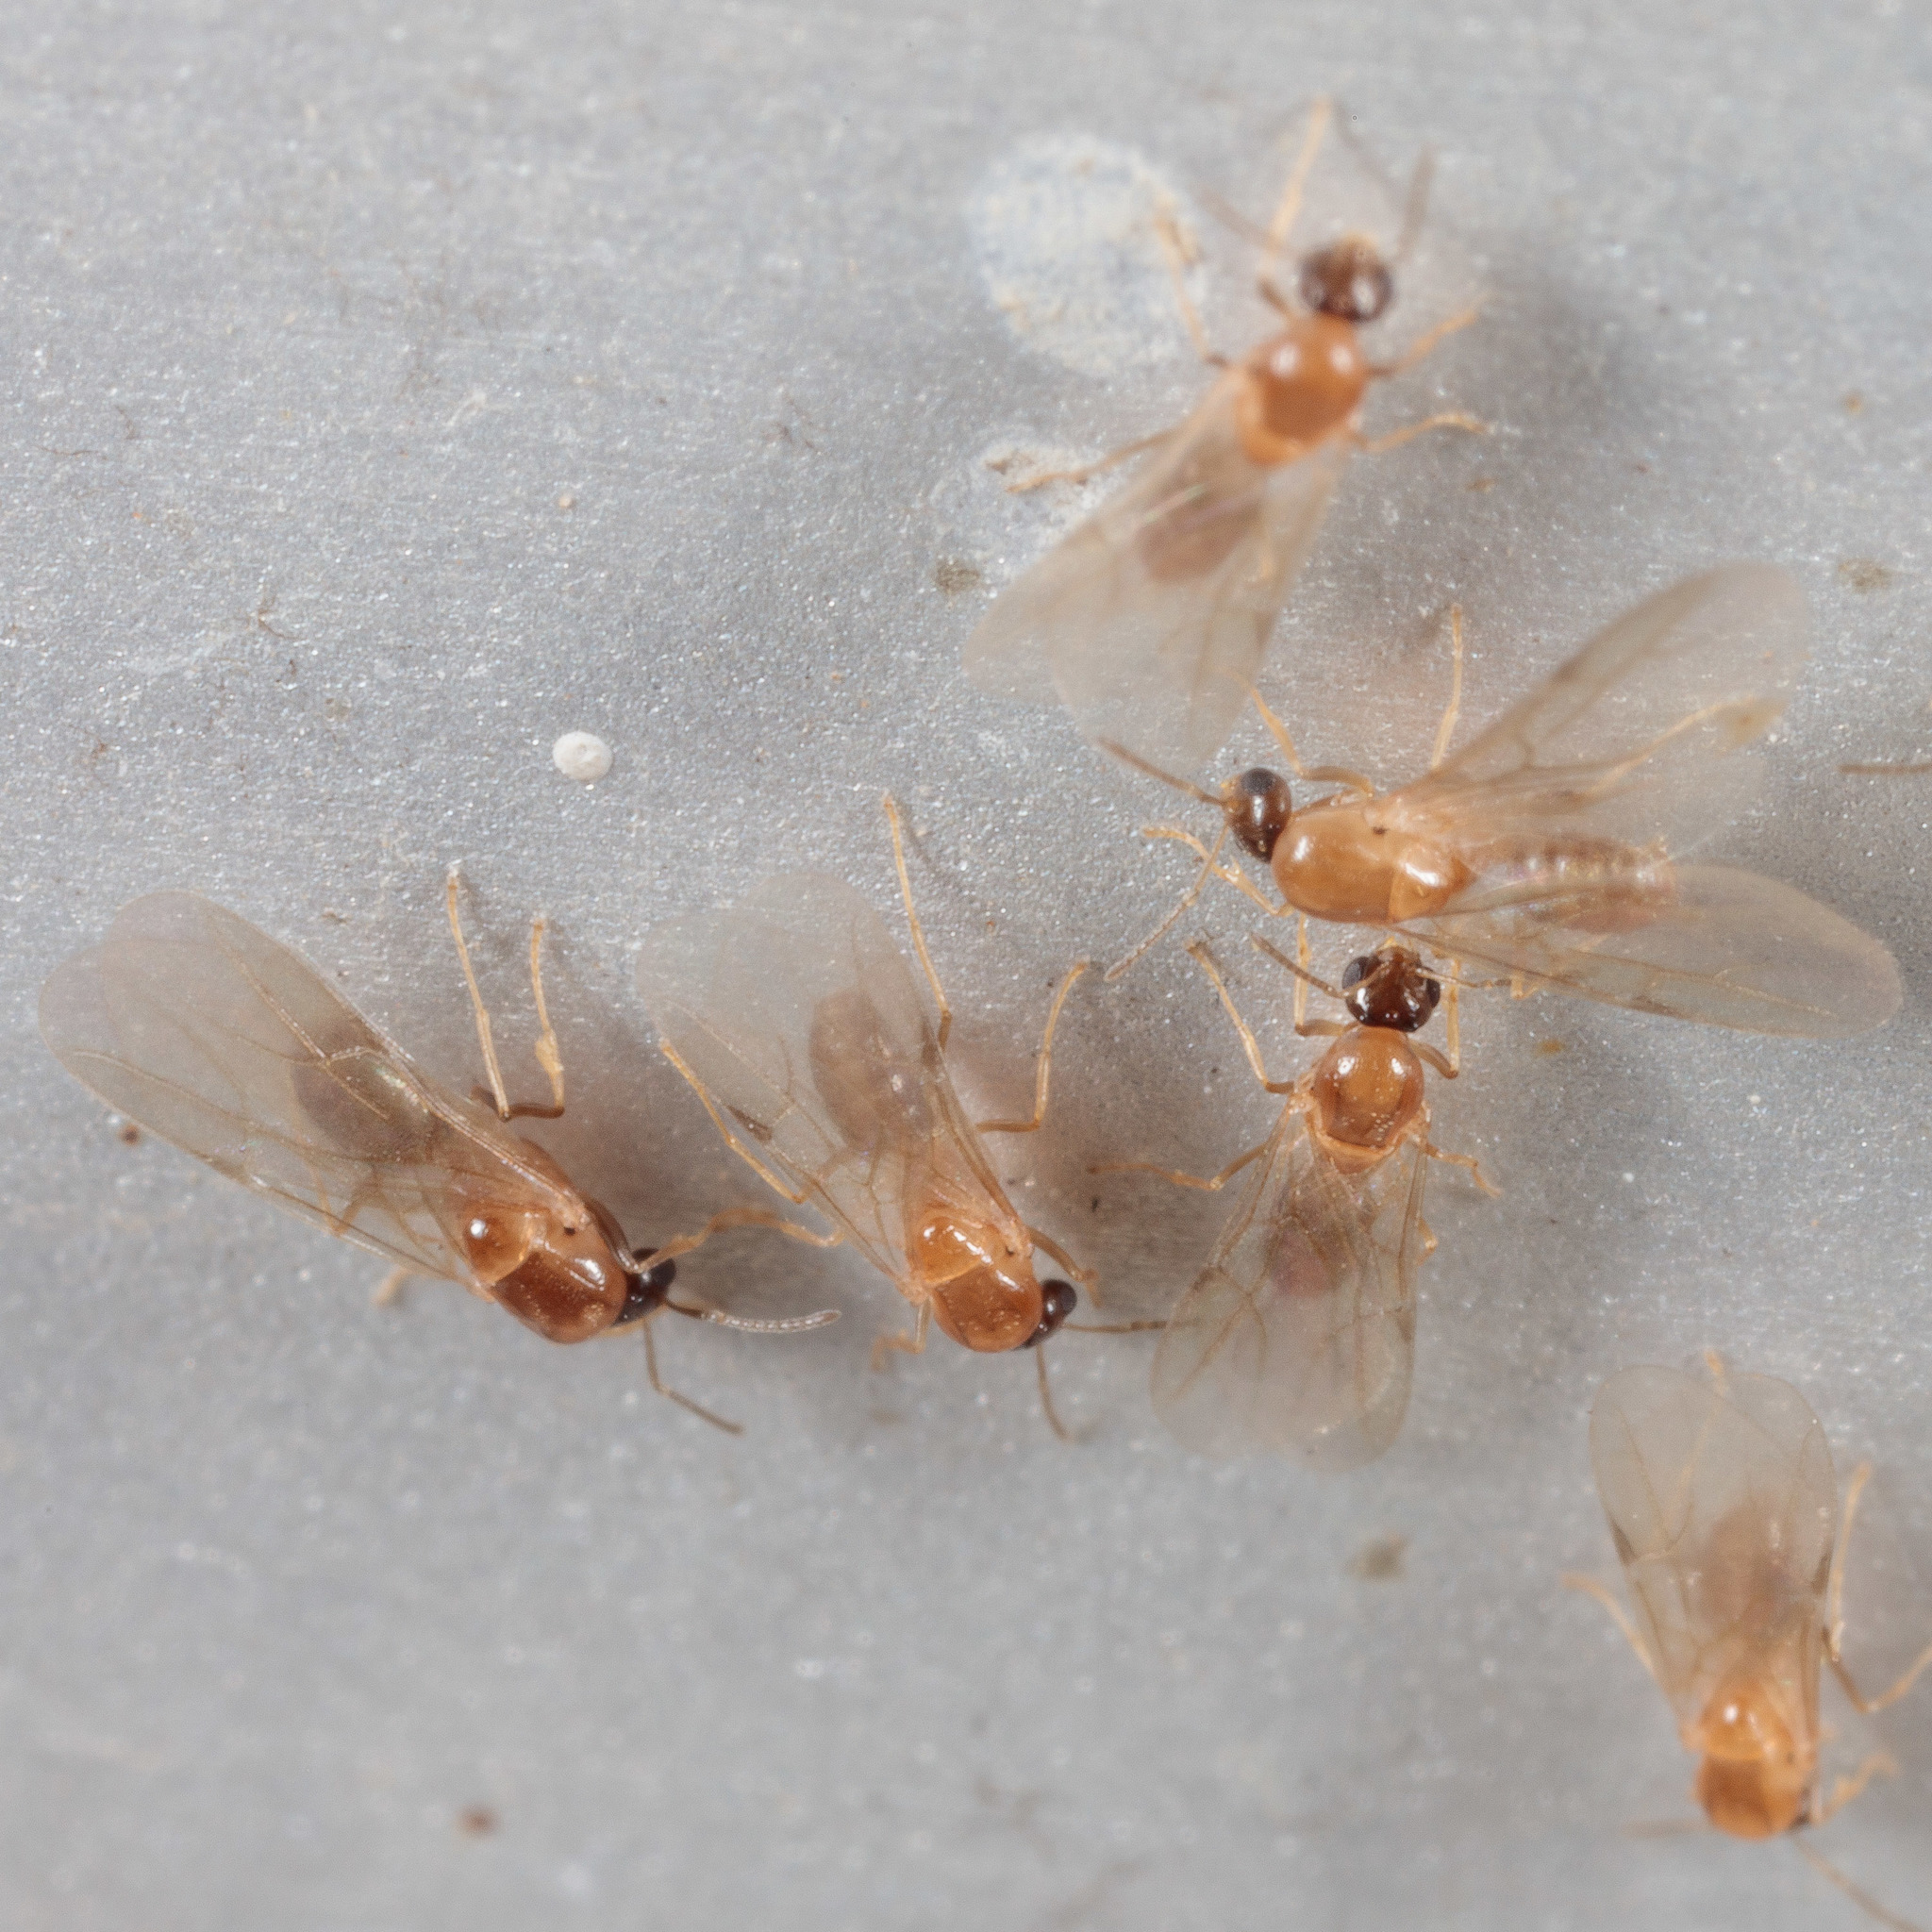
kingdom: Animalia
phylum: Arthropoda
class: Insecta
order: Hymenoptera
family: Formicidae
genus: Brachymyrmex
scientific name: Brachymyrmex patagonicus
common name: Dark rover ant
